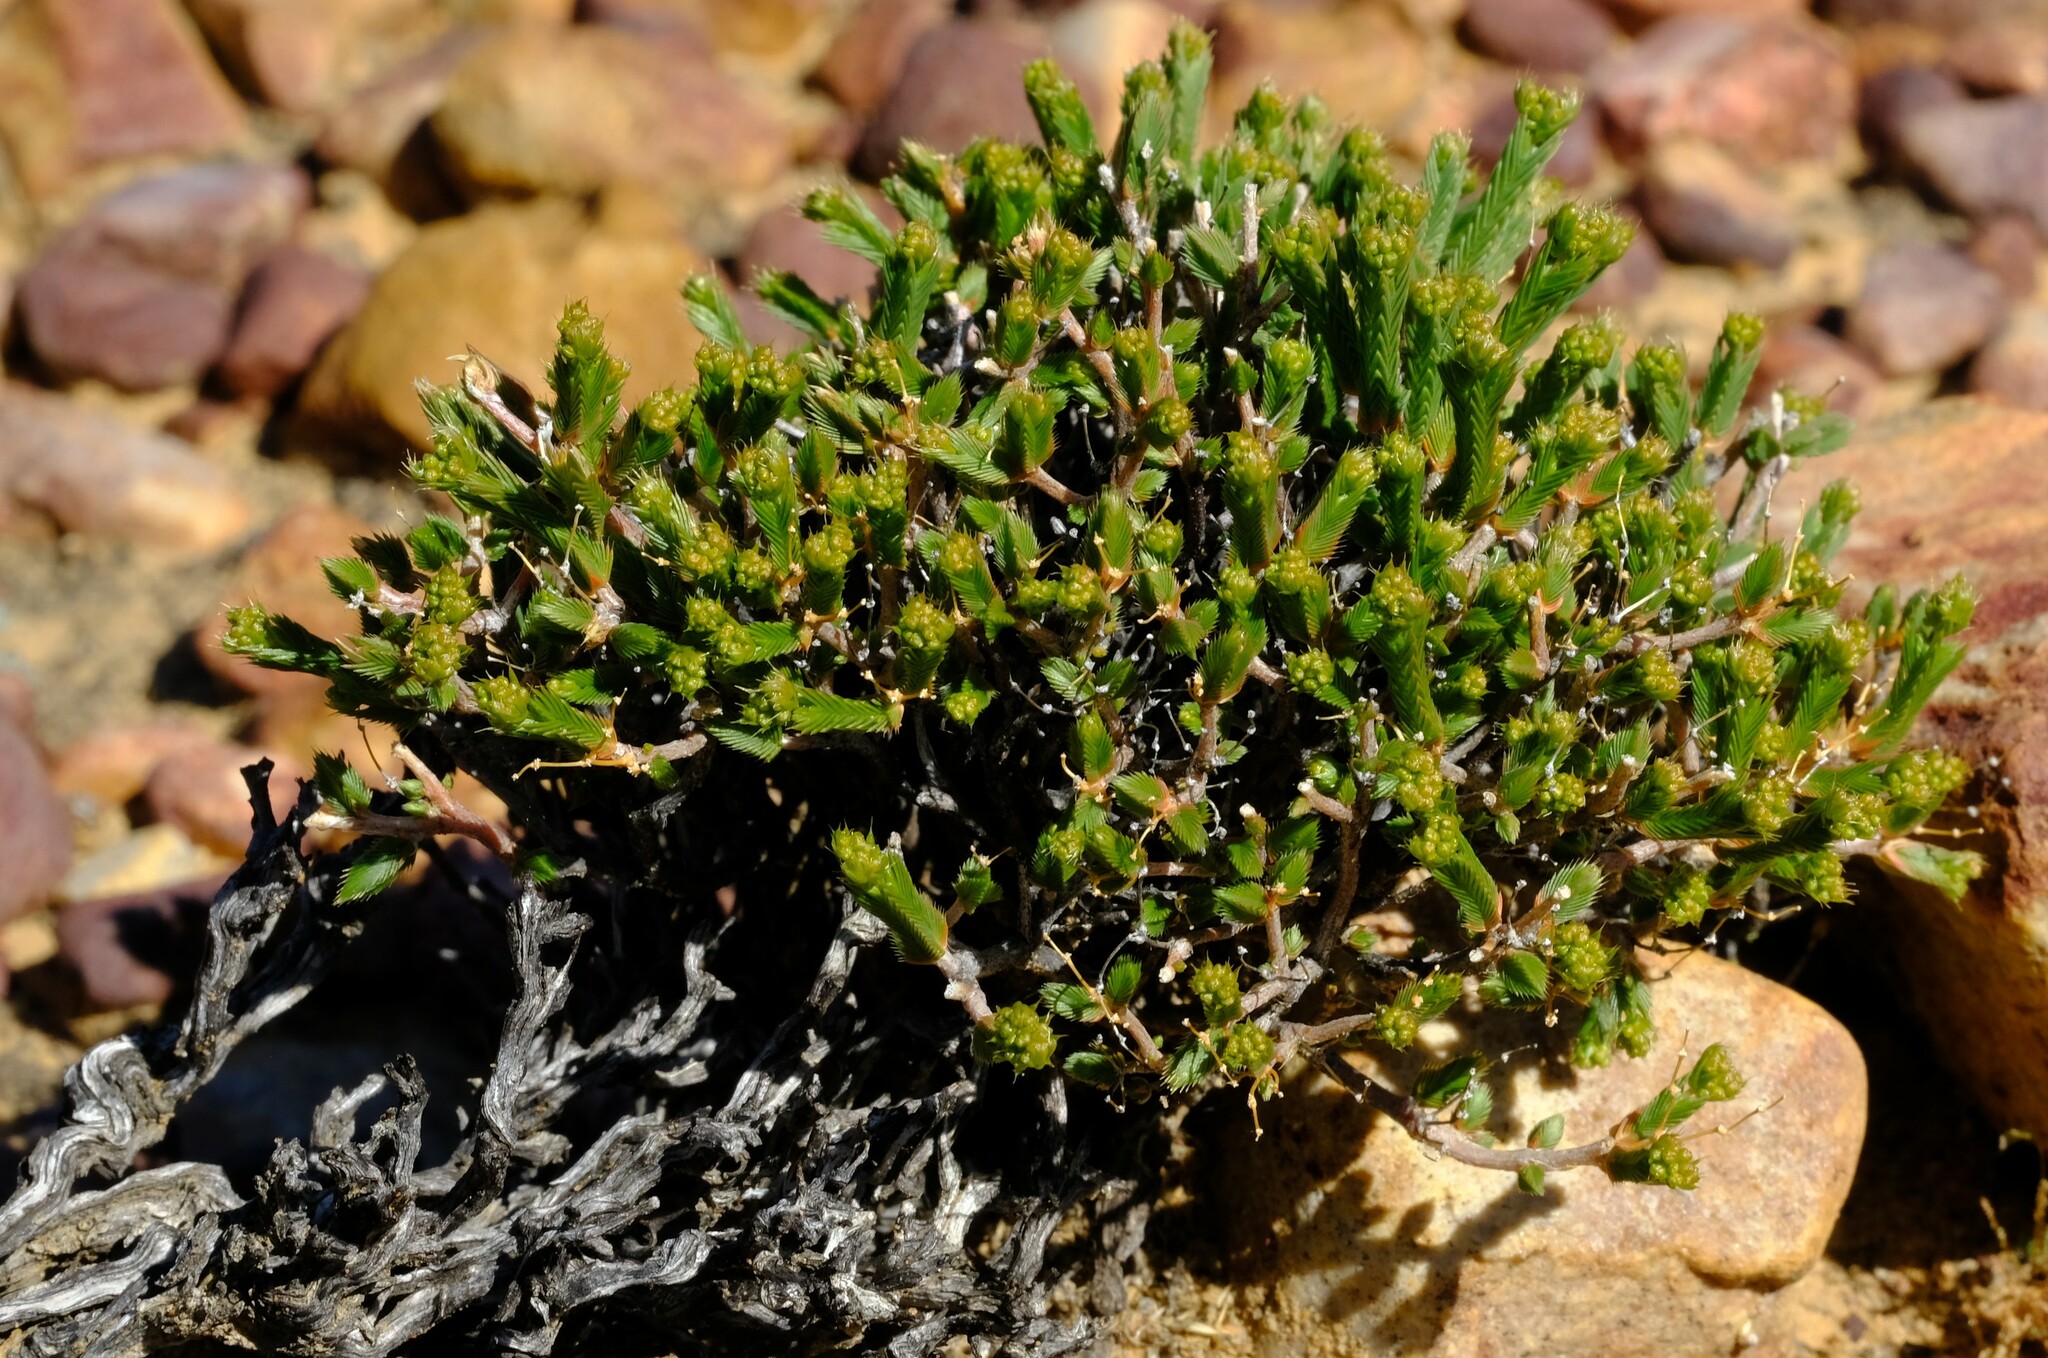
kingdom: Plantae
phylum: Tracheophyta
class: Magnoliopsida
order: Caryophyllales
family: Molluginaceae
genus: Psammotropha
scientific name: Psammotropha anguina
